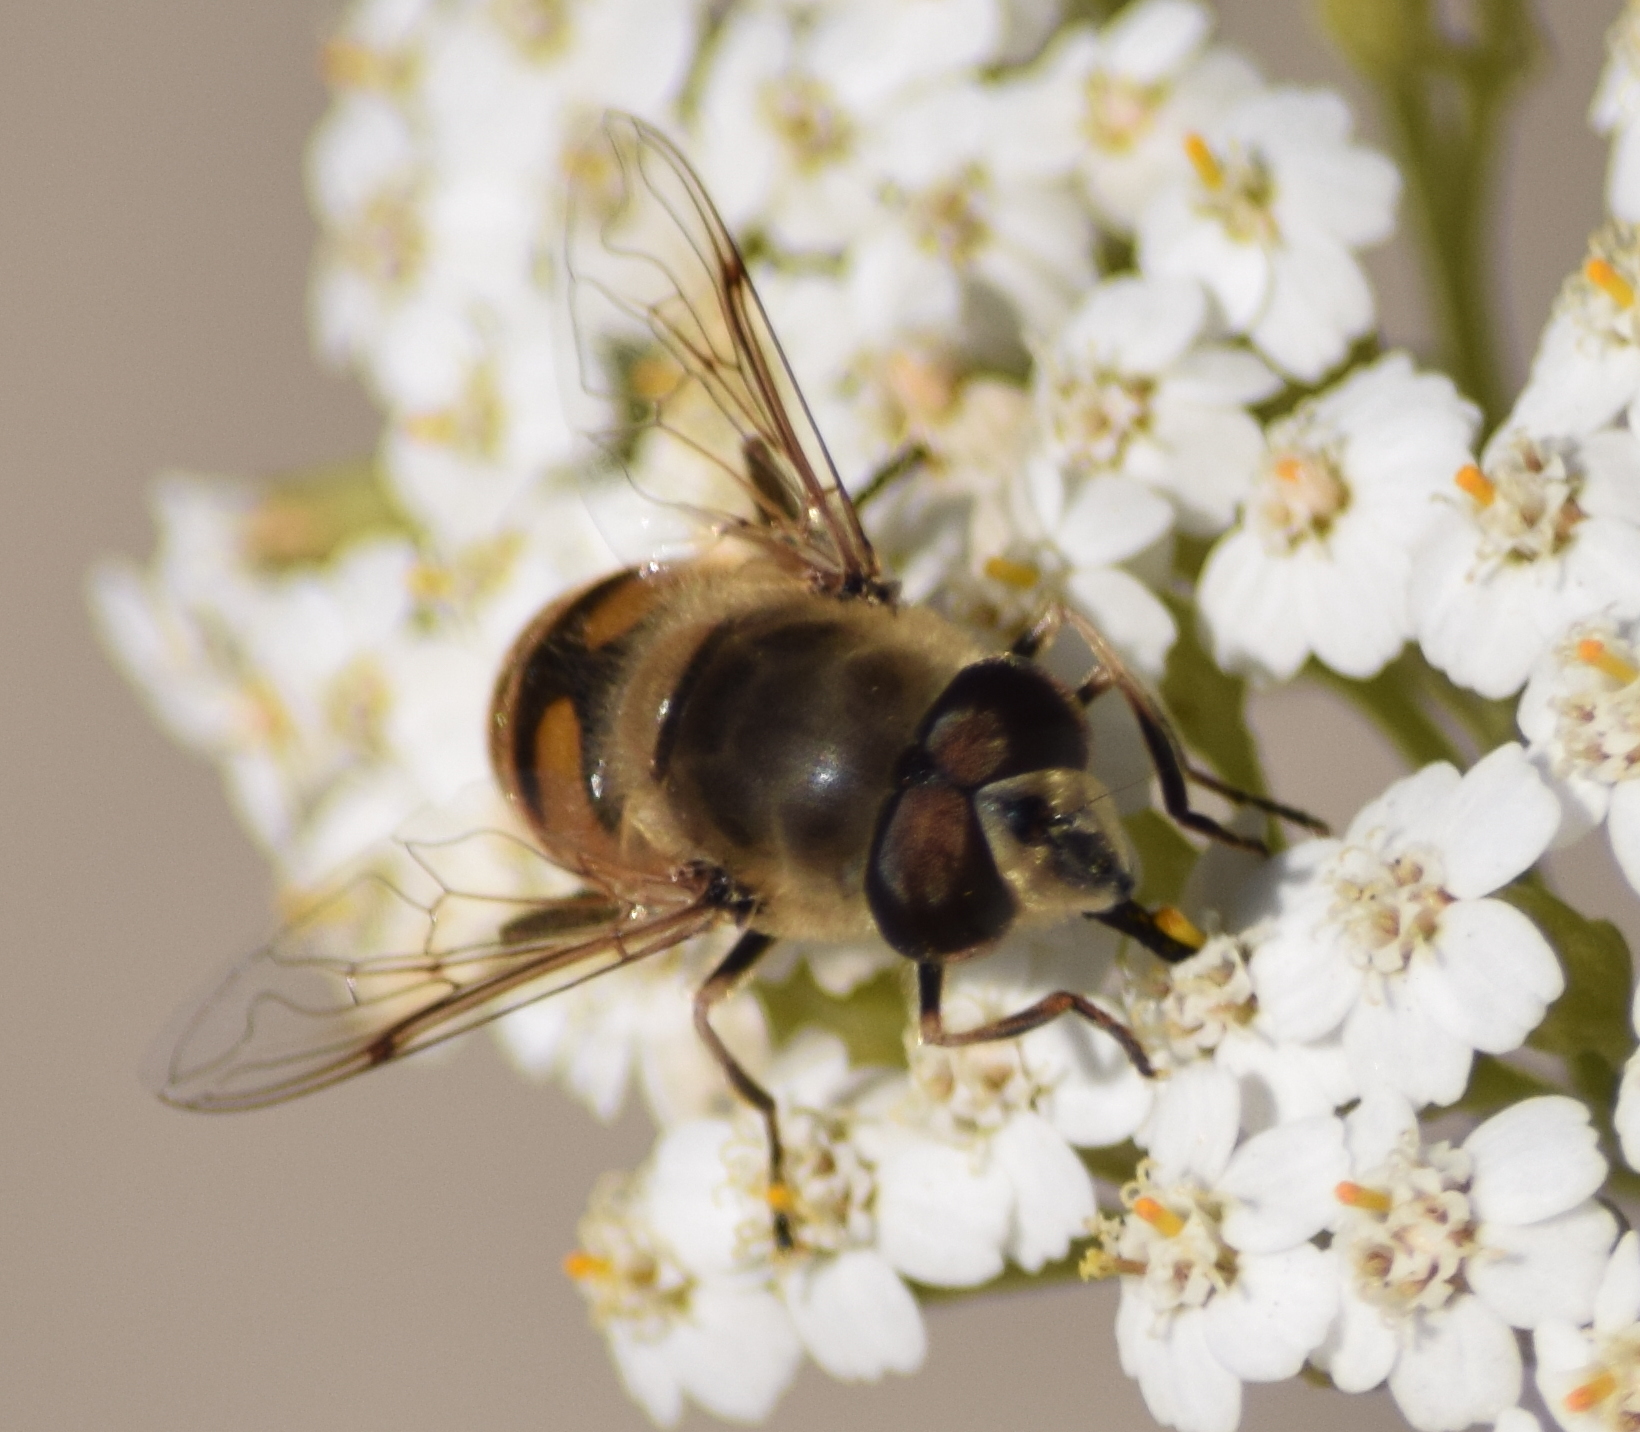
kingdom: Animalia
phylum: Arthropoda
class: Insecta
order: Diptera
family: Syrphidae
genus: Eristalis
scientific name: Eristalis tenax
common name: Drone fly
